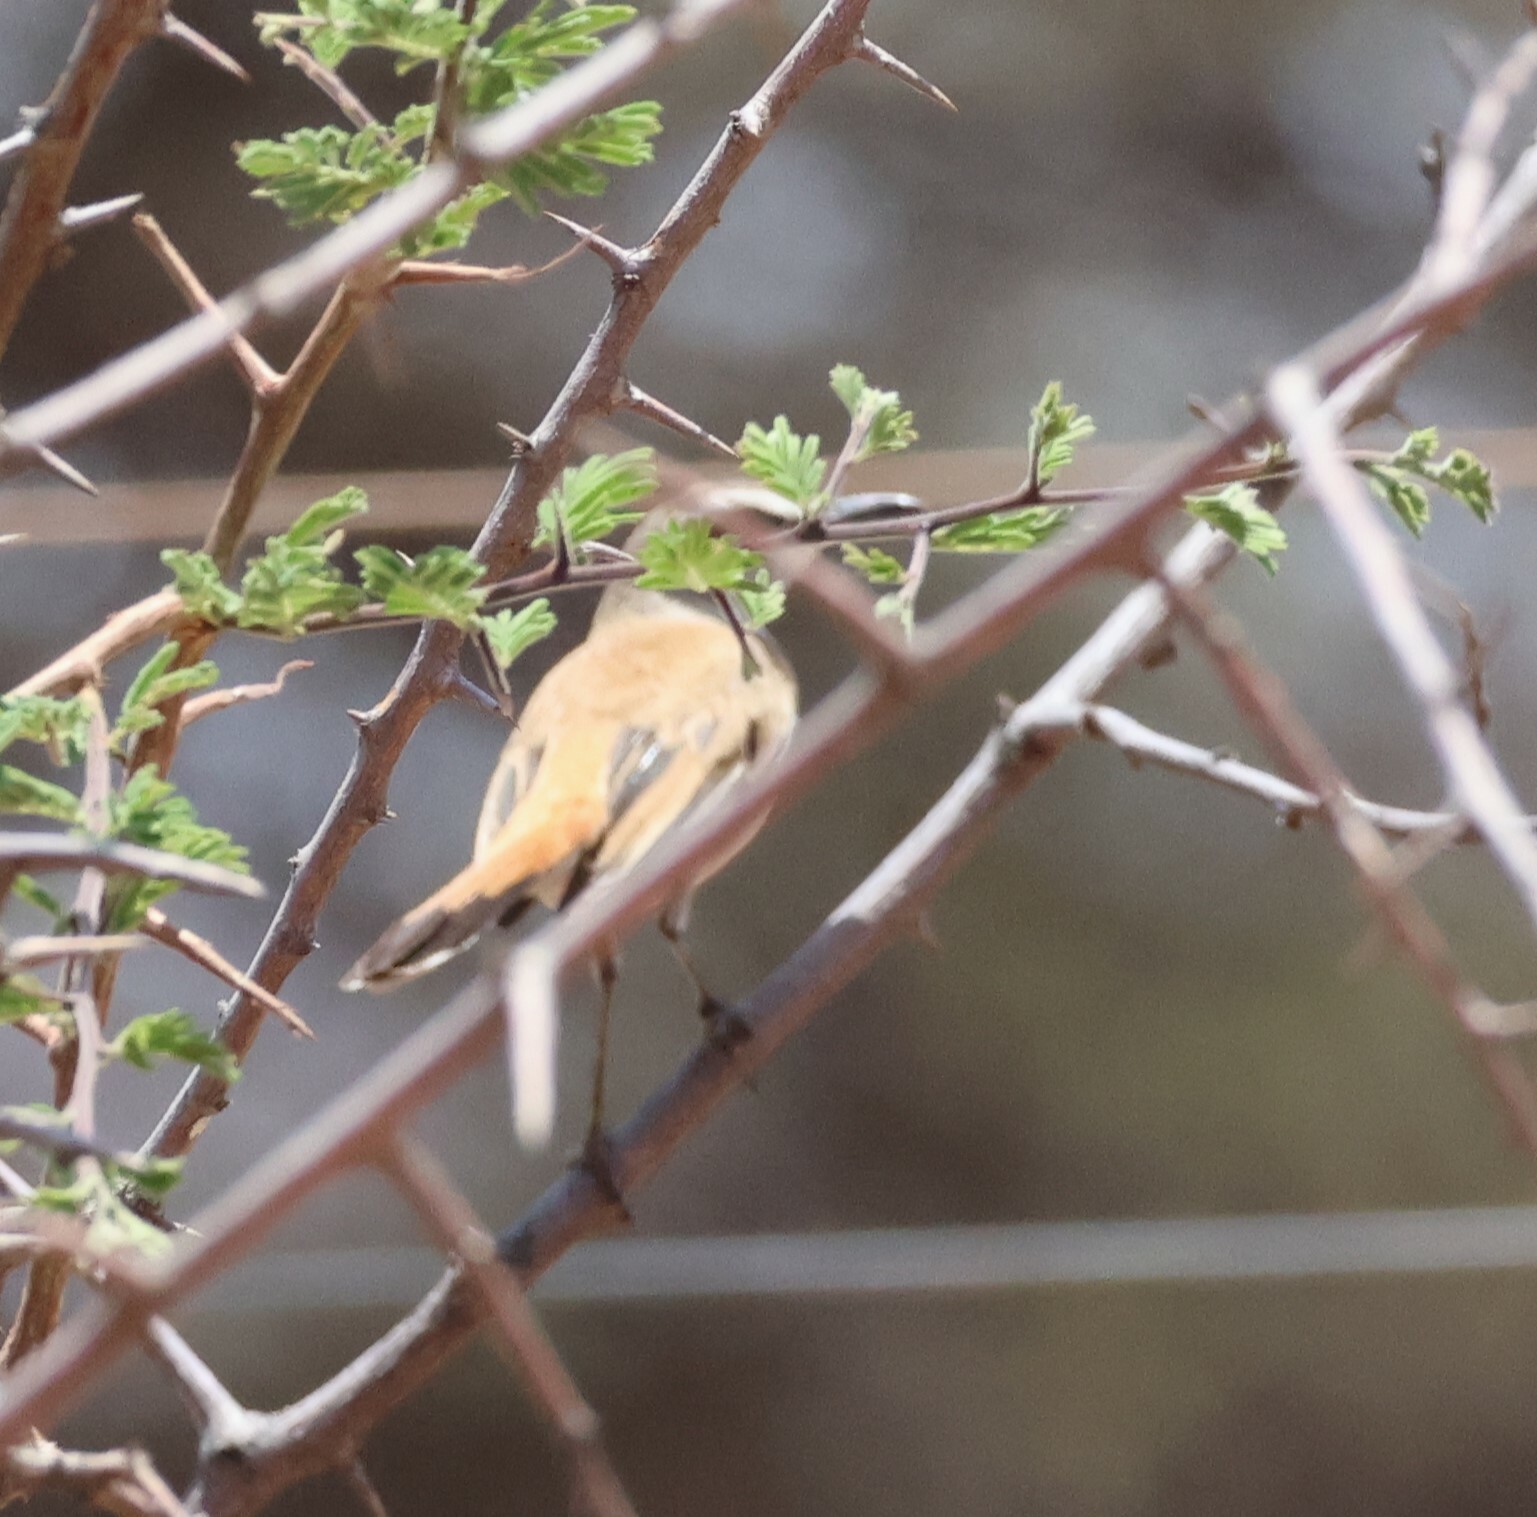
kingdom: Animalia
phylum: Chordata
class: Aves
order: Passeriformes
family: Muscicapidae
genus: Erythropygia
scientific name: Erythropygia paena
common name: Kalahari scrub robin
